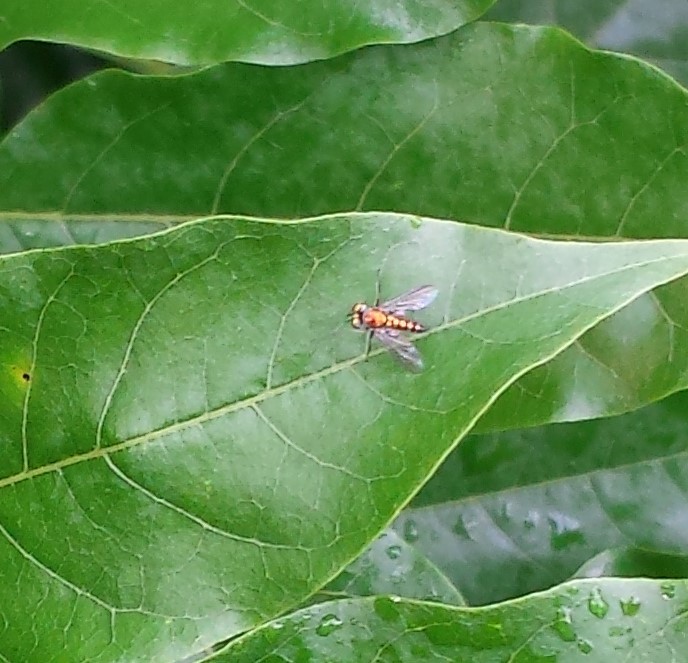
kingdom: Animalia
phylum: Arthropoda
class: Insecta
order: Diptera
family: Dolichopodidae
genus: Condylostylus
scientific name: Condylostylus
